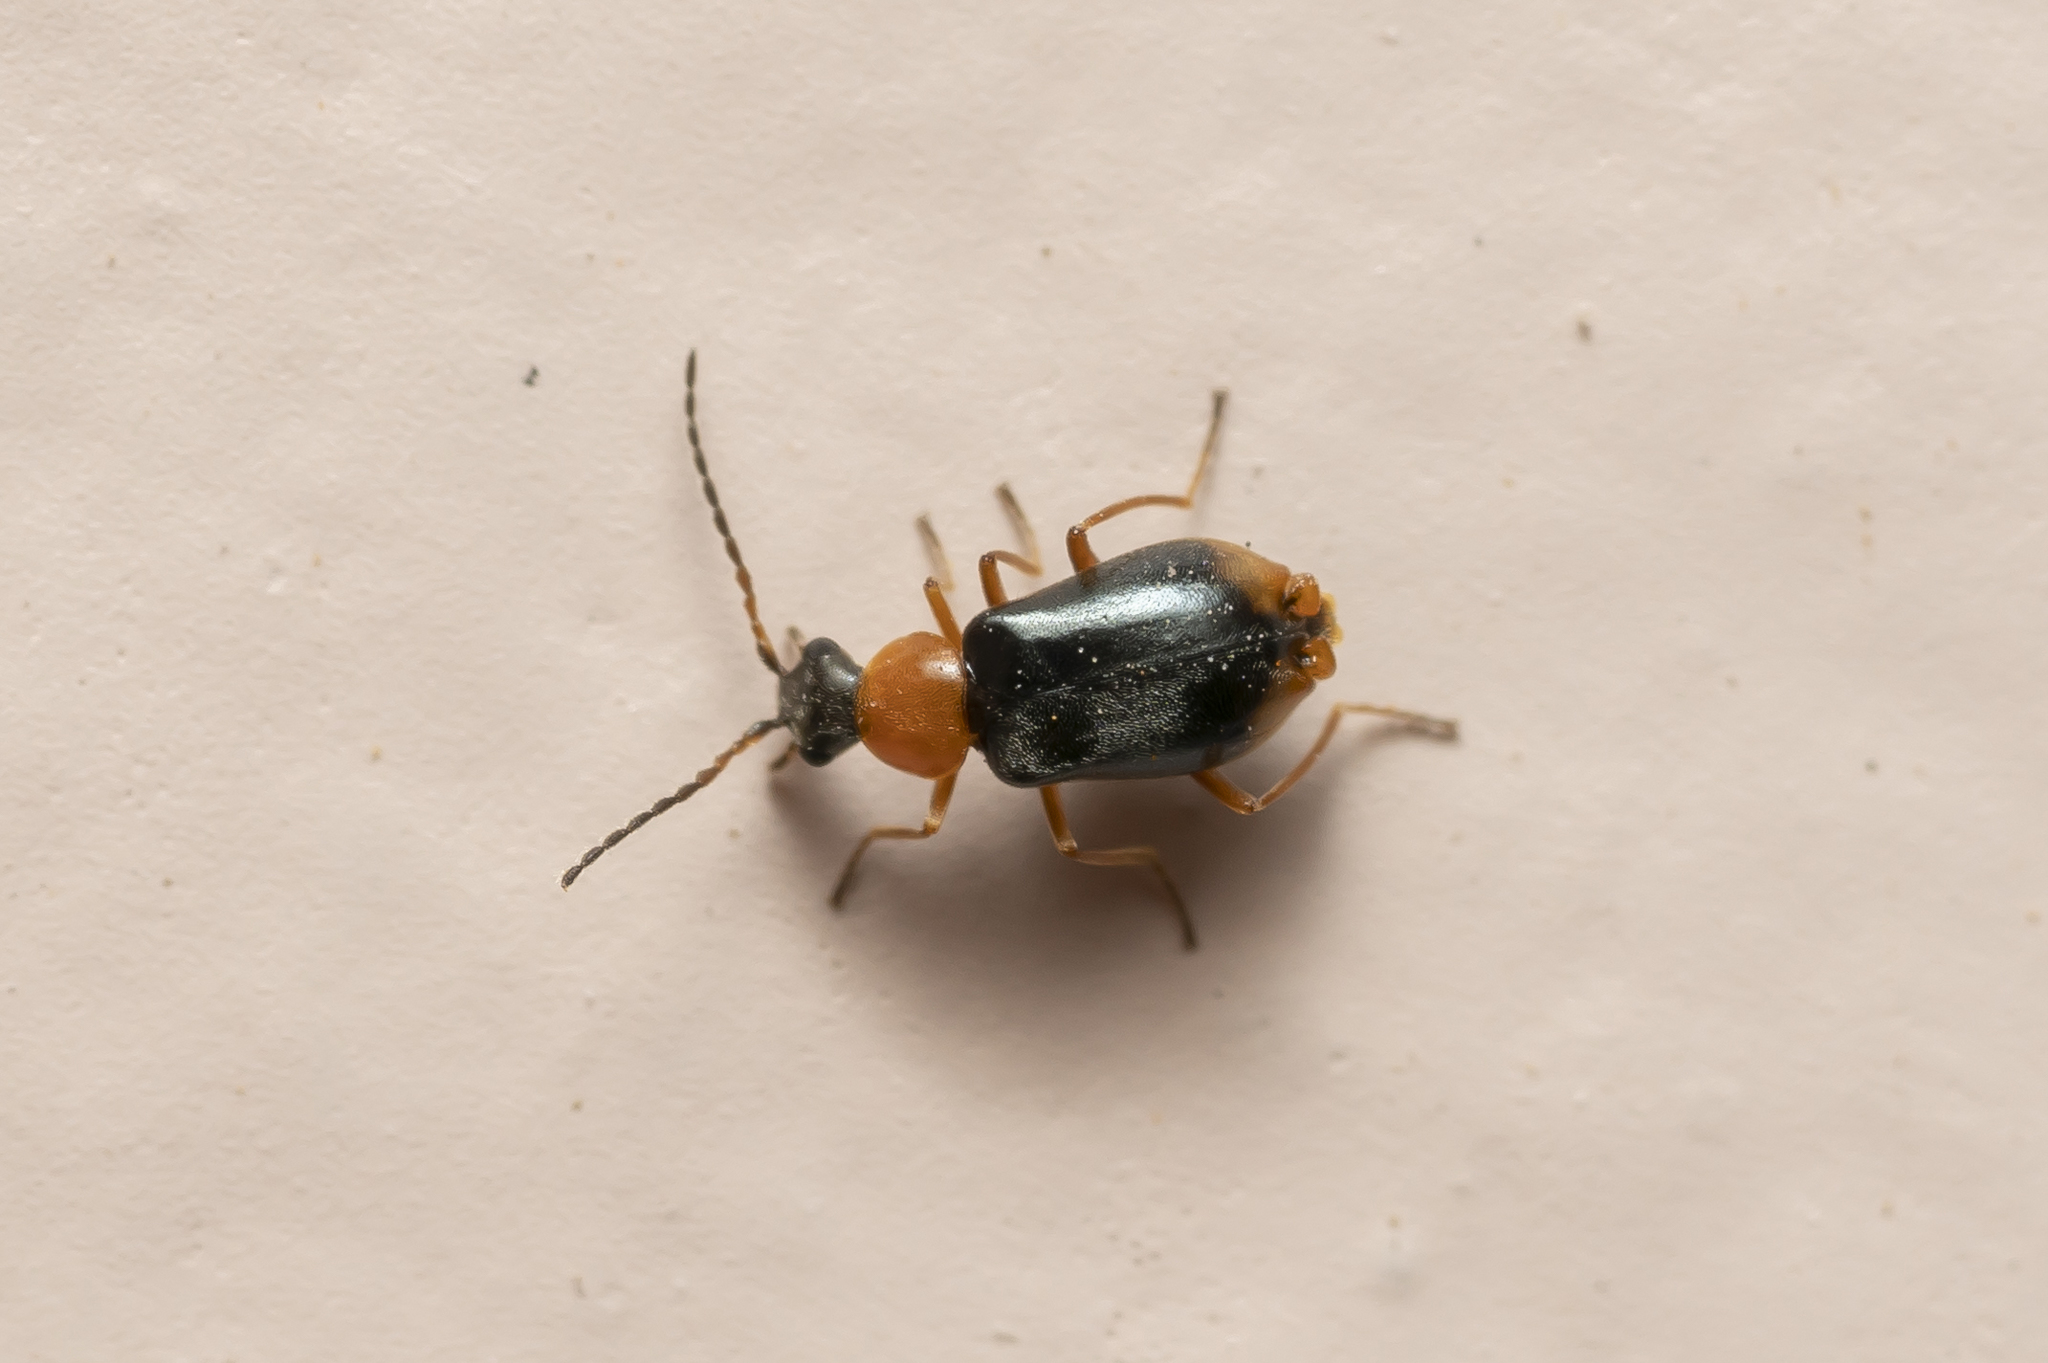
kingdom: Animalia
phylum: Arthropoda
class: Insecta
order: Coleoptera
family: Melyridae
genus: Hypebaeus
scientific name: Hypebaeus flavicollis
